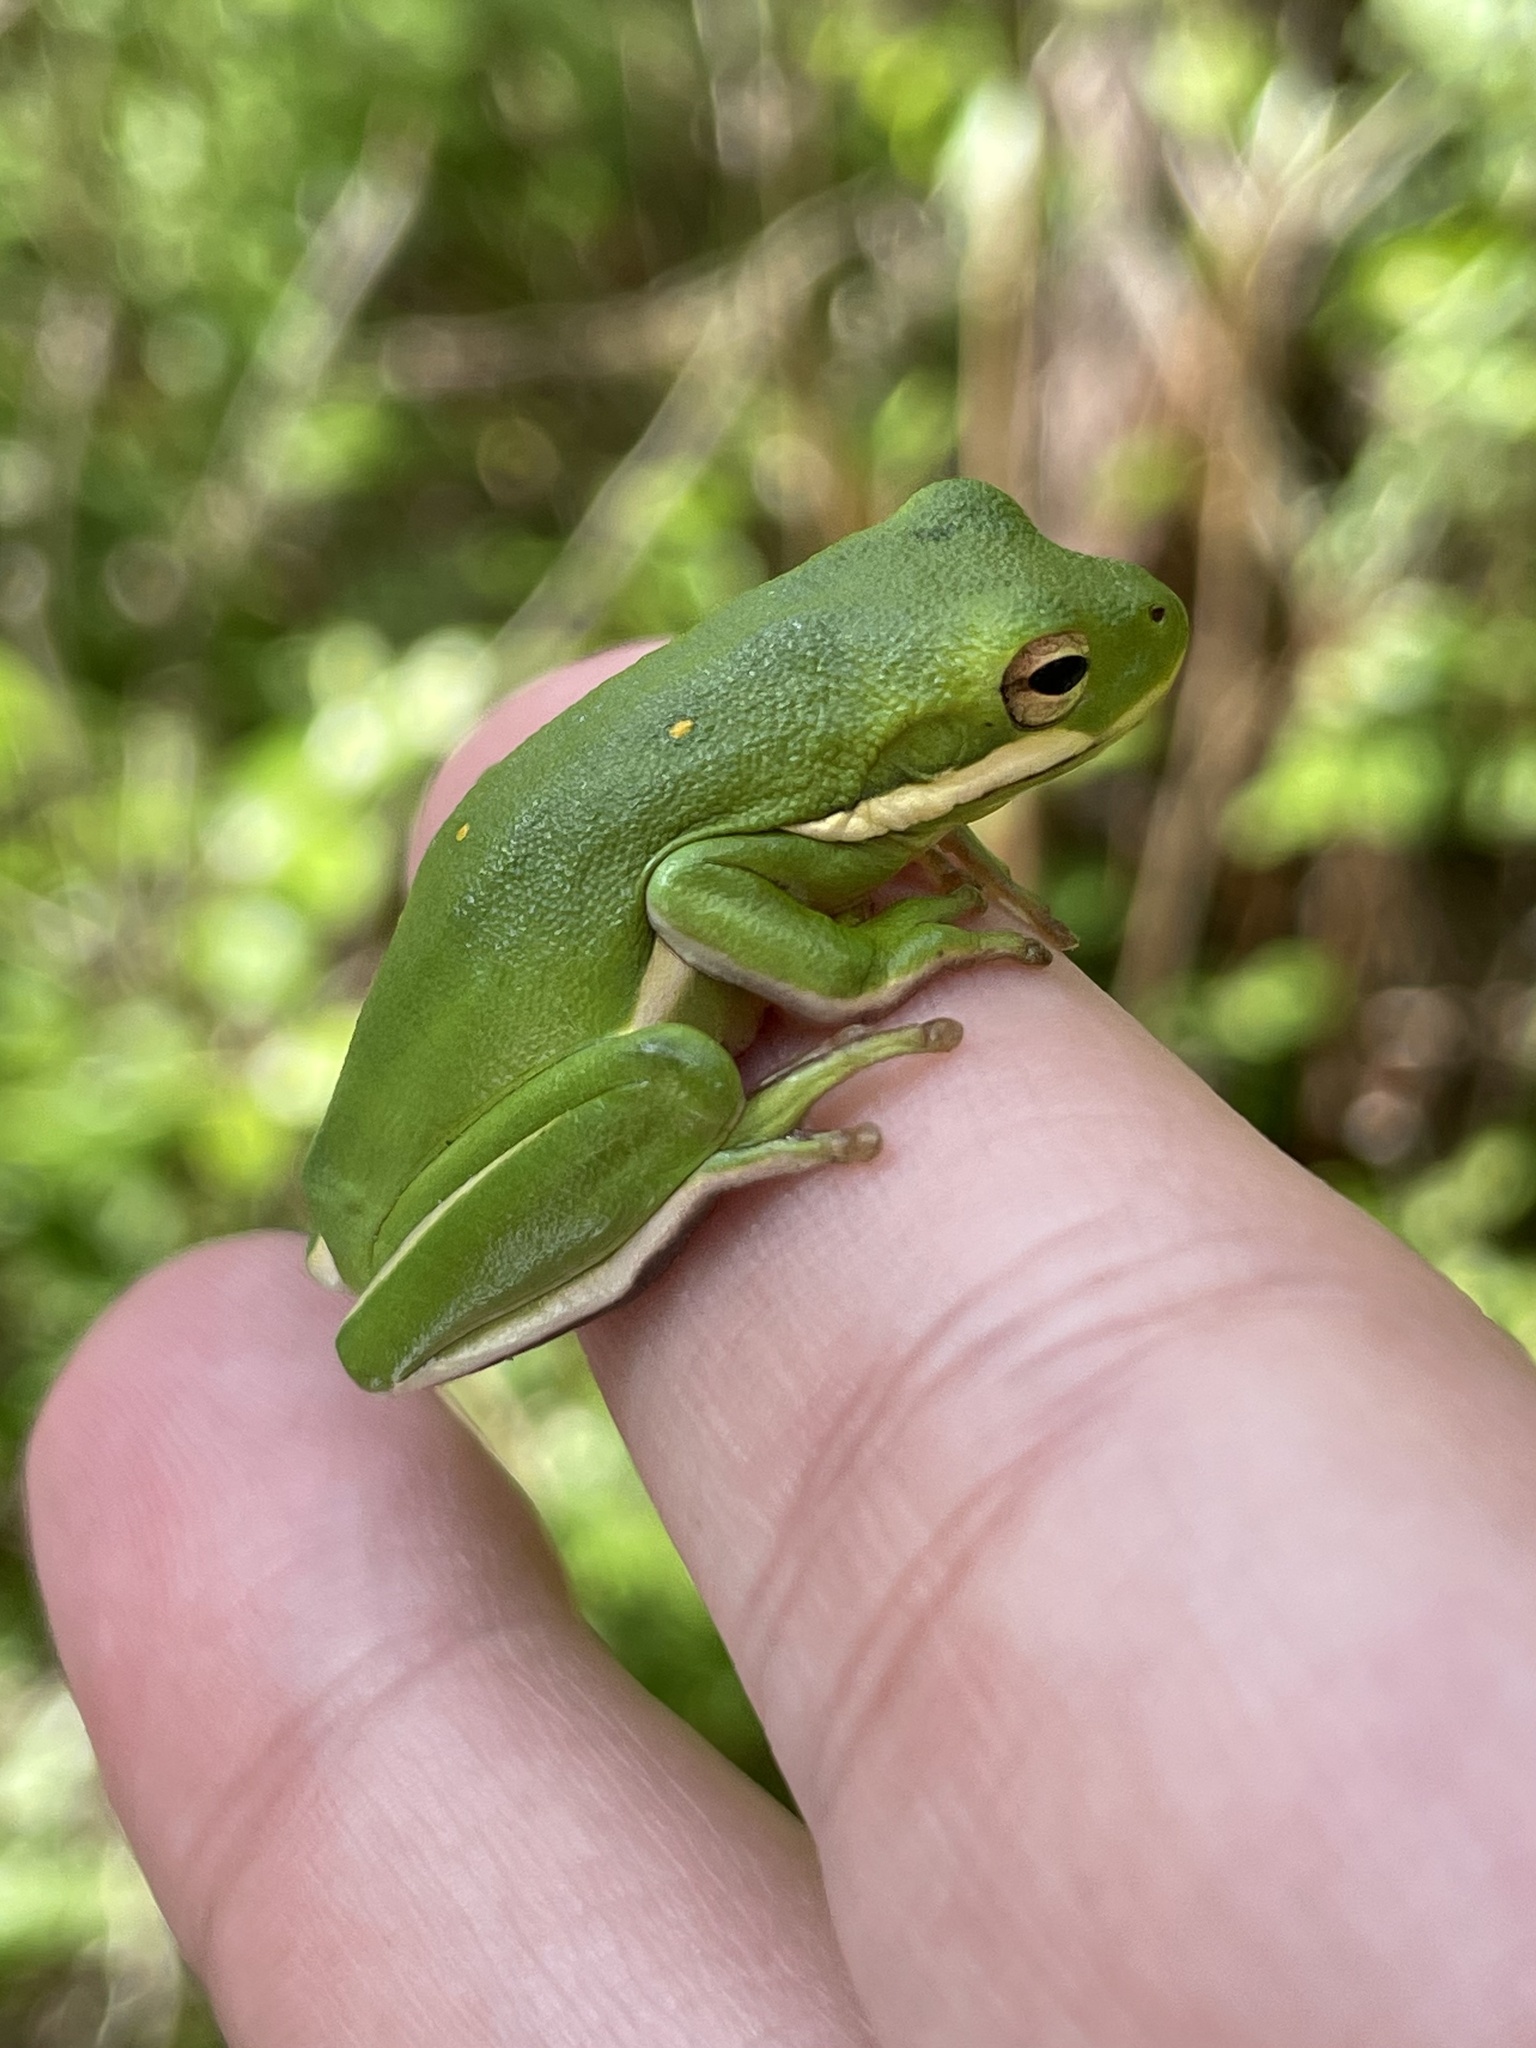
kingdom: Animalia
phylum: Chordata
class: Amphibia
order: Anura
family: Hylidae
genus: Dryophytes
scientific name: Dryophytes cinereus
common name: Green treefrog
